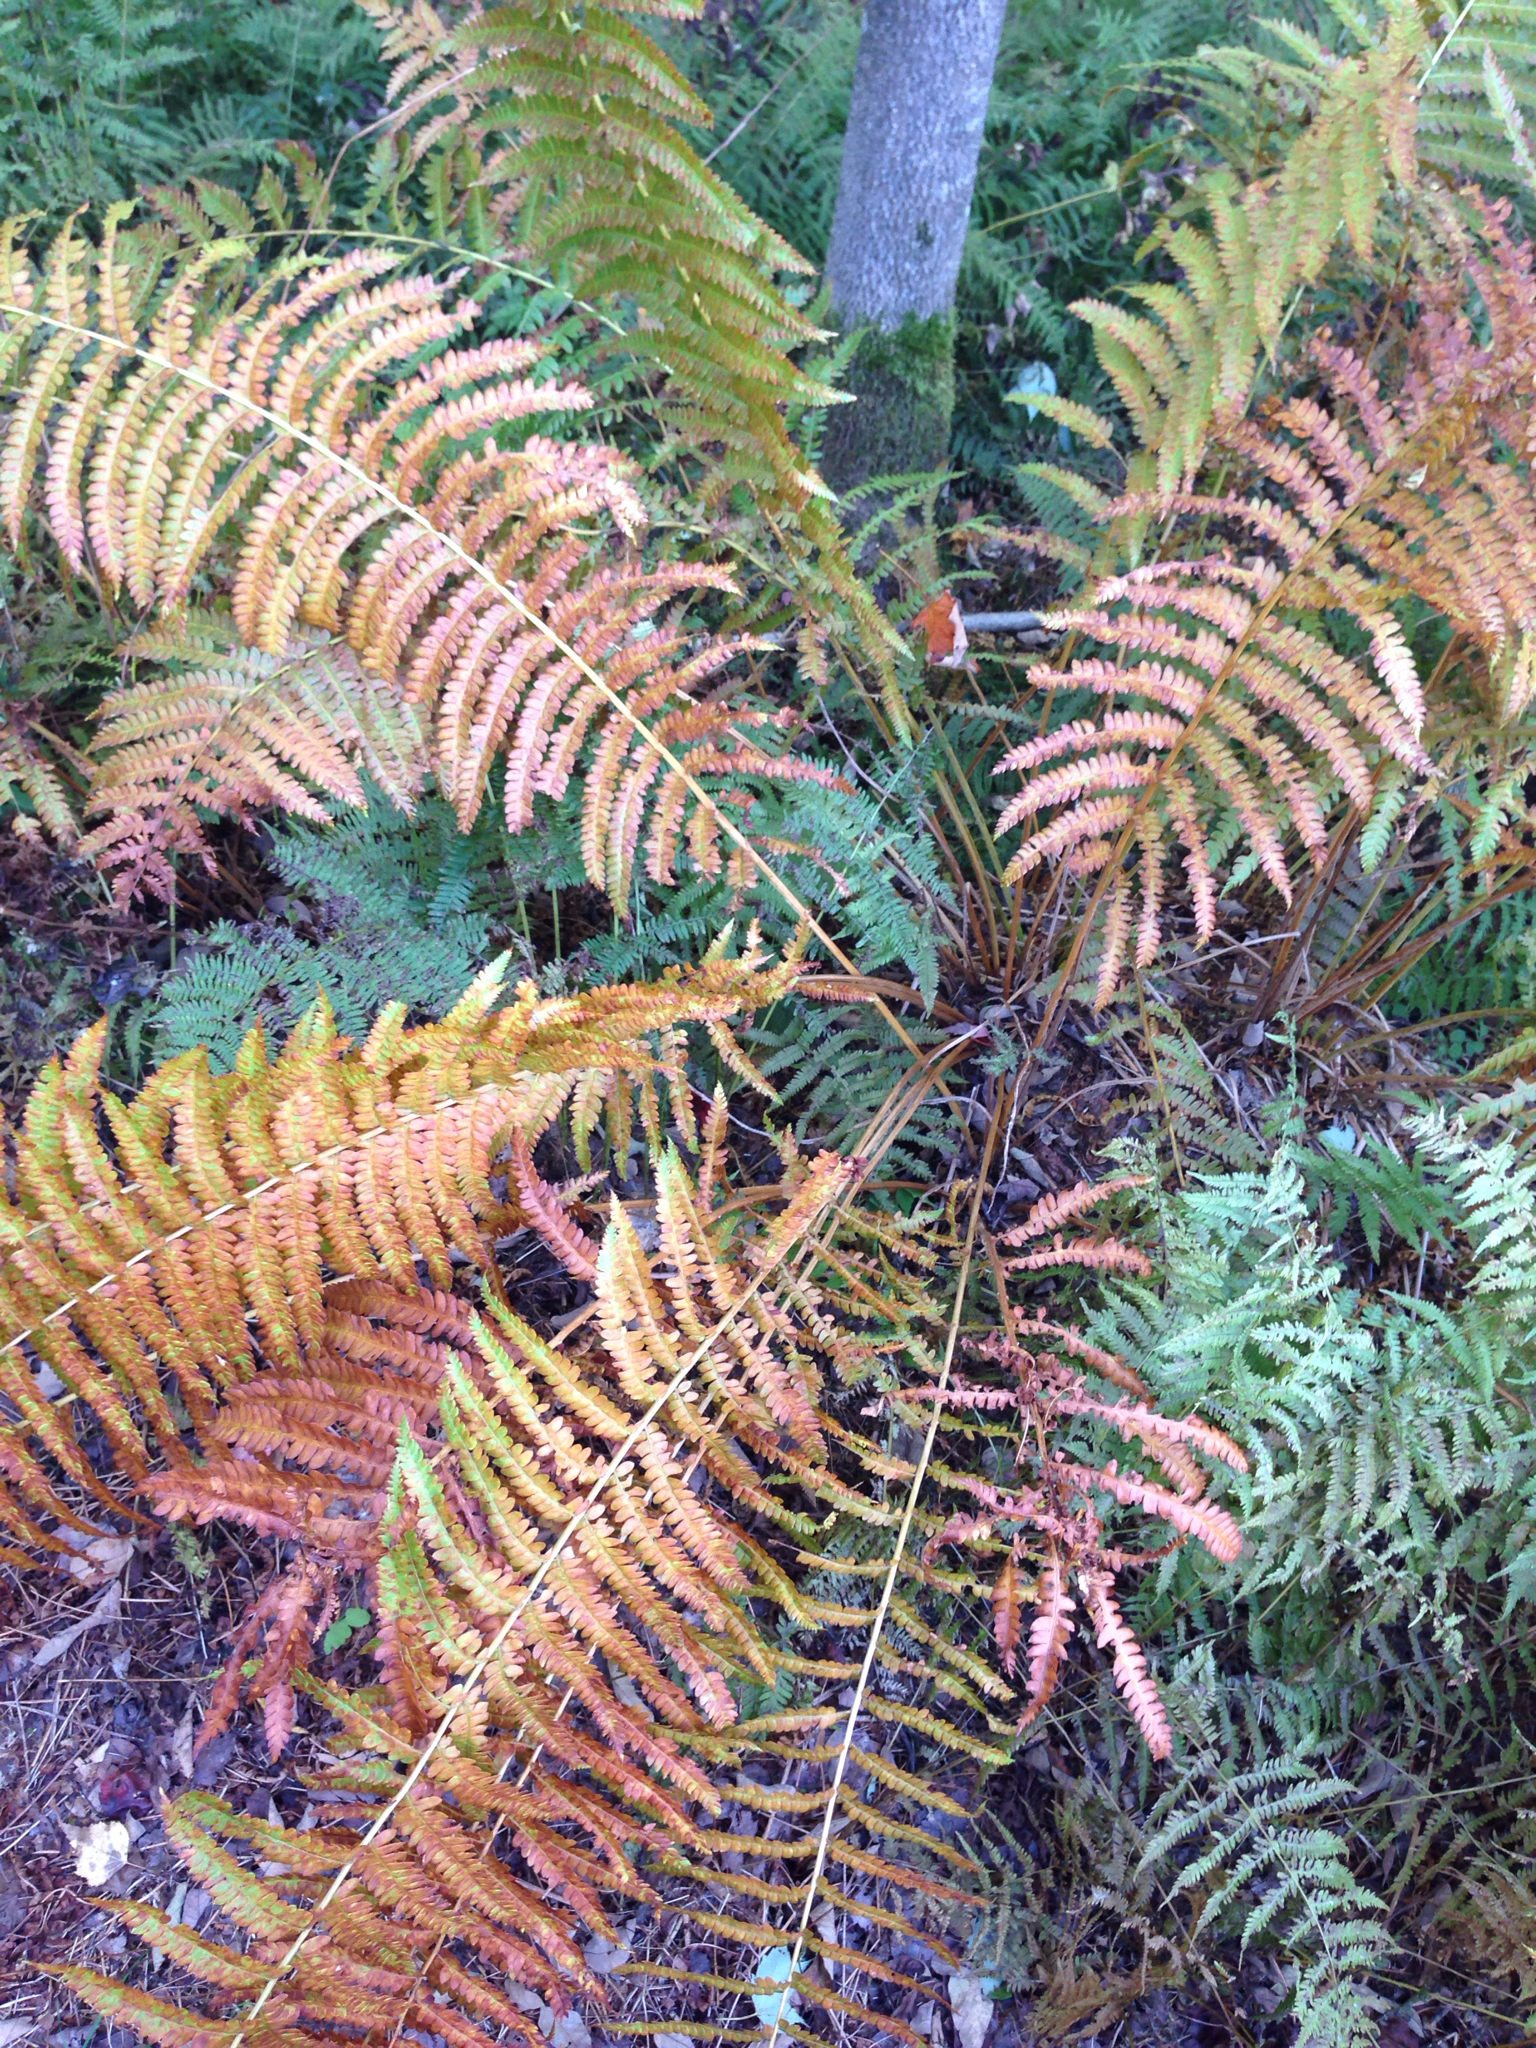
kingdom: Plantae
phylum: Tracheophyta
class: Polypodiopsida
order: Osmundales
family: Osmundaceae
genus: Osmundastrum
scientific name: Osmundastrum cinnamomeum
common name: Cinnamon fern
